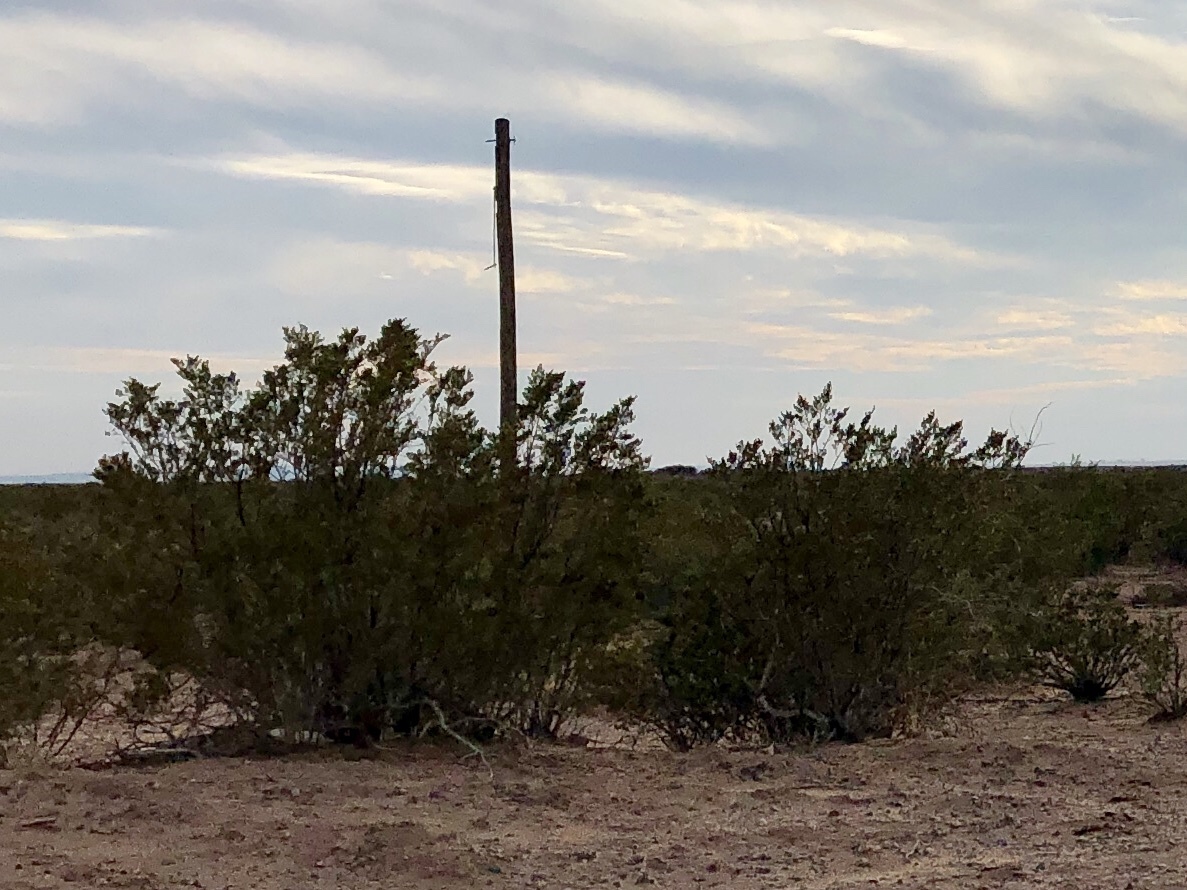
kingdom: Plantae
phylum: Tracheophyta
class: Magnoliopsida
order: Zygophyllales
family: Zygophyllaceae
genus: Larrea
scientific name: Larrea tridentata
